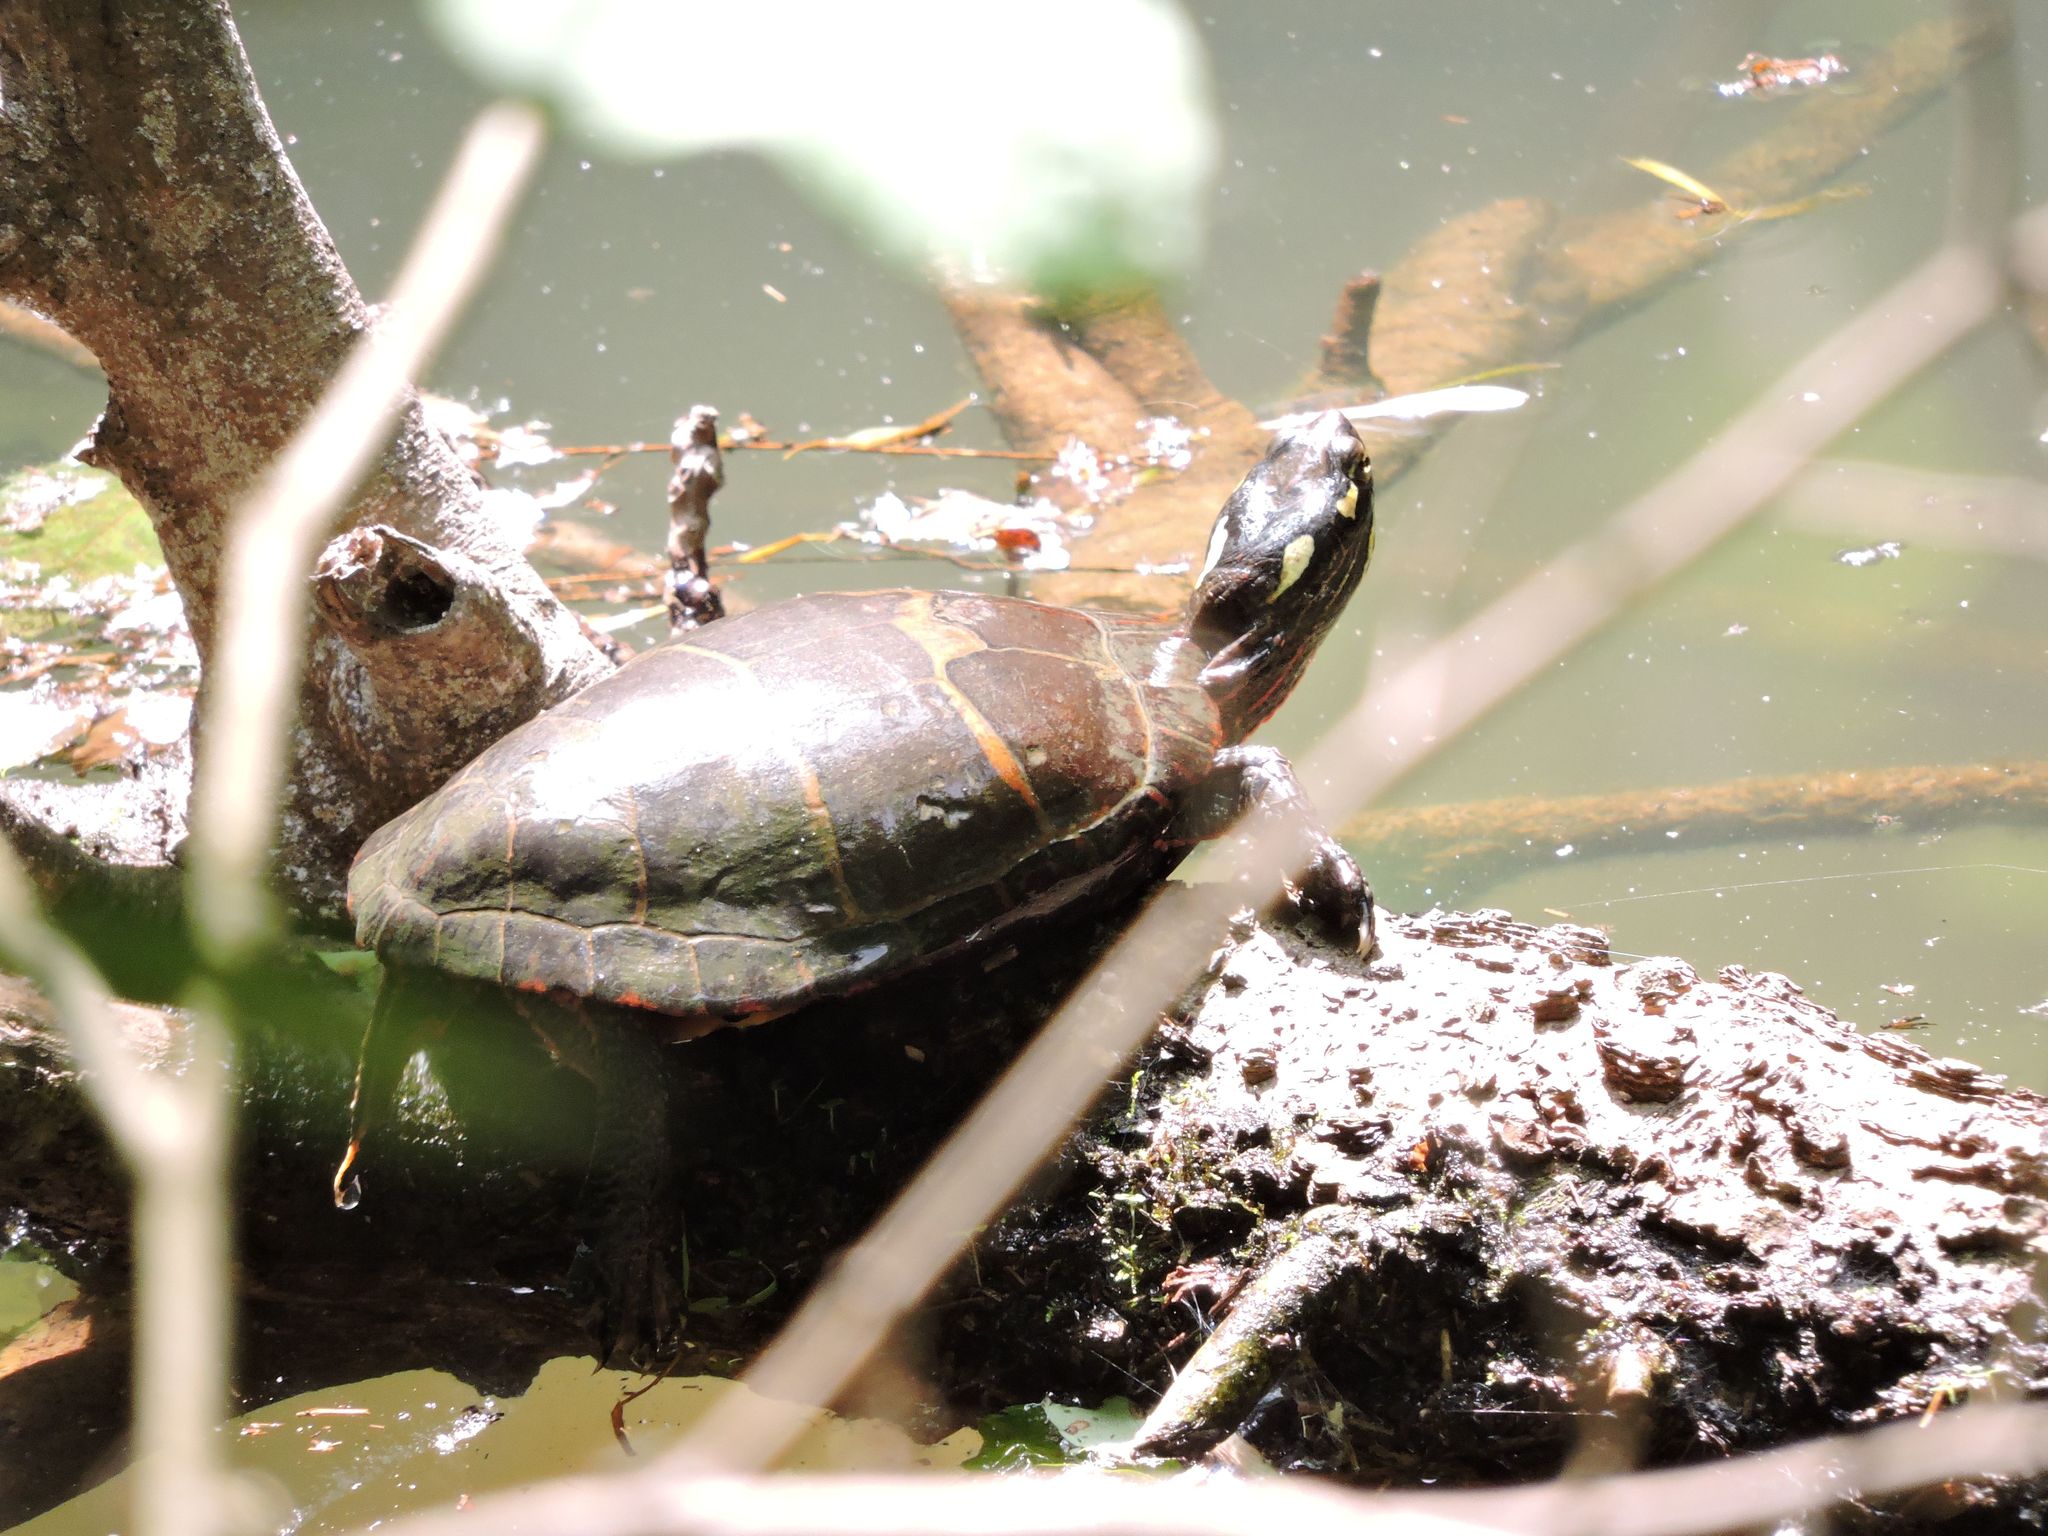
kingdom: Animalia
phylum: Chordata
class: Testudines
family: Emydidae
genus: Chrysemys
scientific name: Chrysemys picta
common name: Painted turtle
